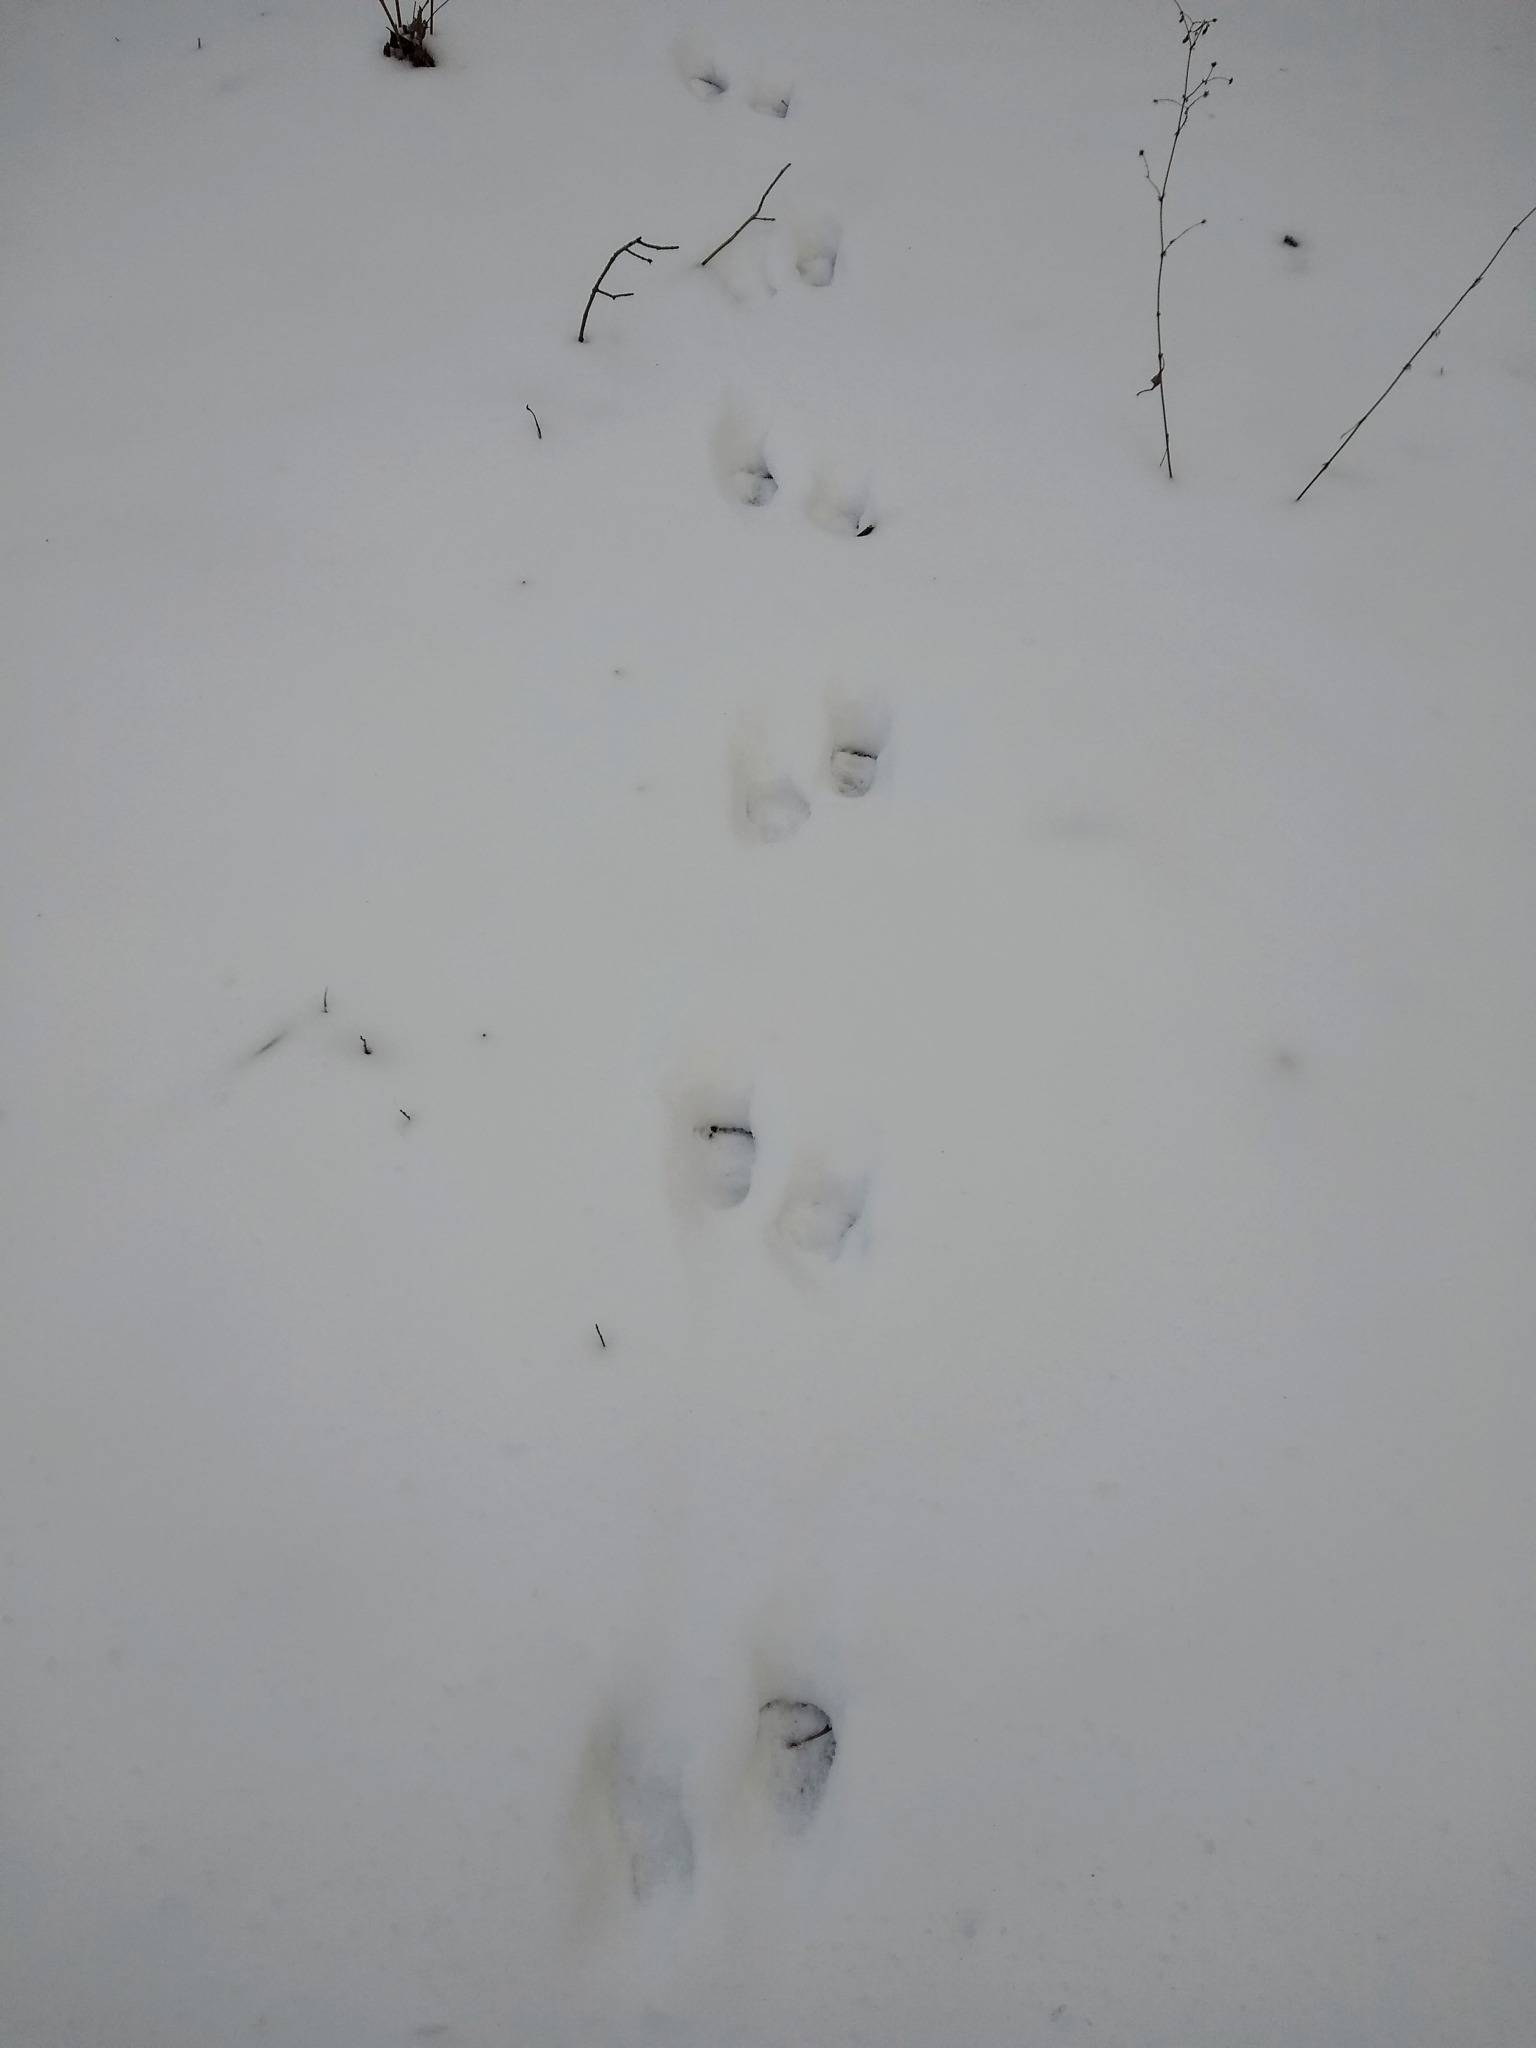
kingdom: Animalia
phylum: Chordata
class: Mammalia
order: Carnivora
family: Procyonidae
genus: Procyon
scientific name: Procyon lotor
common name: Raccoon
